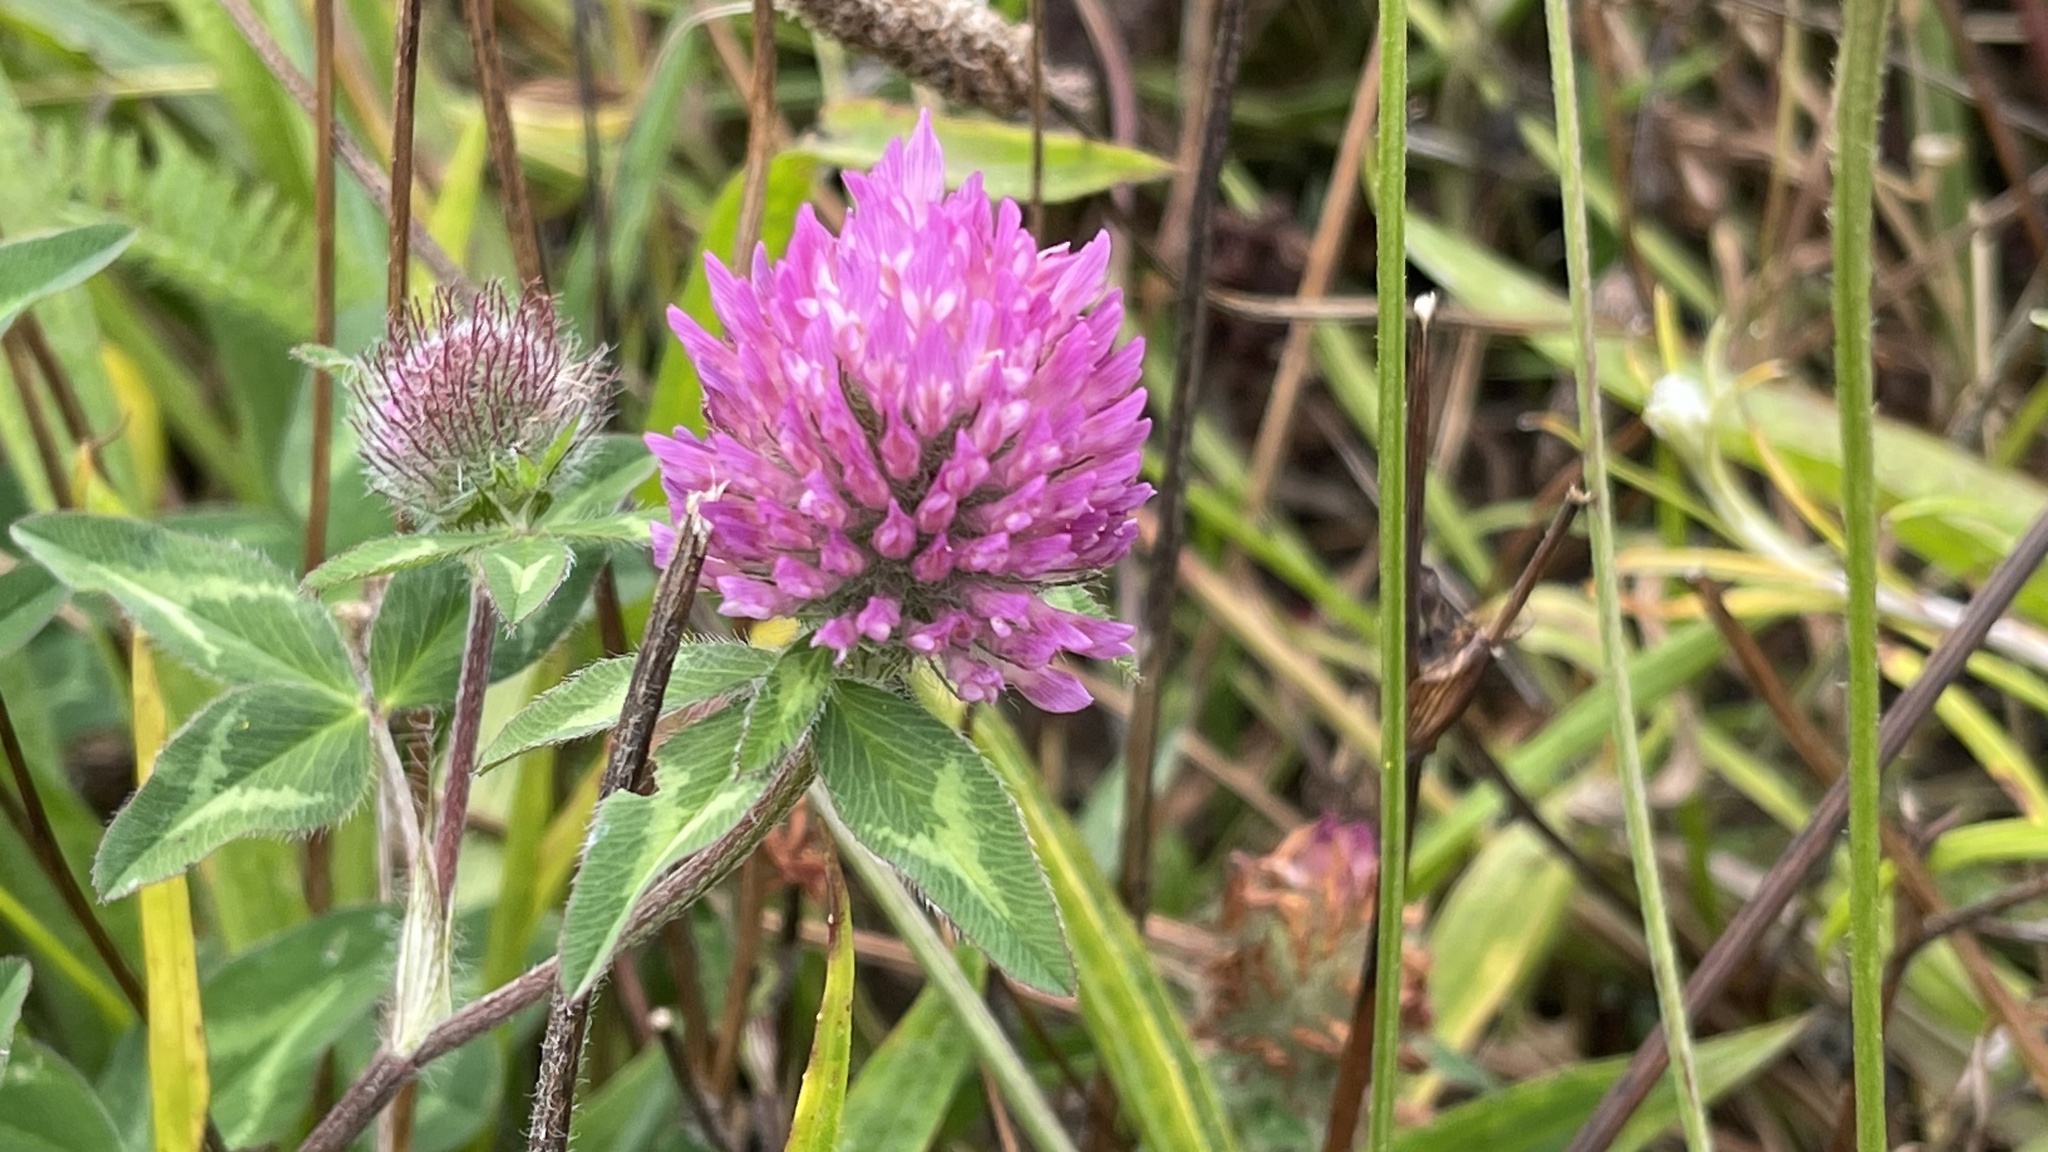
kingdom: Plantae
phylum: Tracheophyta
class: Magnoliopsida
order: Fabales
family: Fabaceae
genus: Trifolium
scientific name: Trifolium pratense
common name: Red clover
